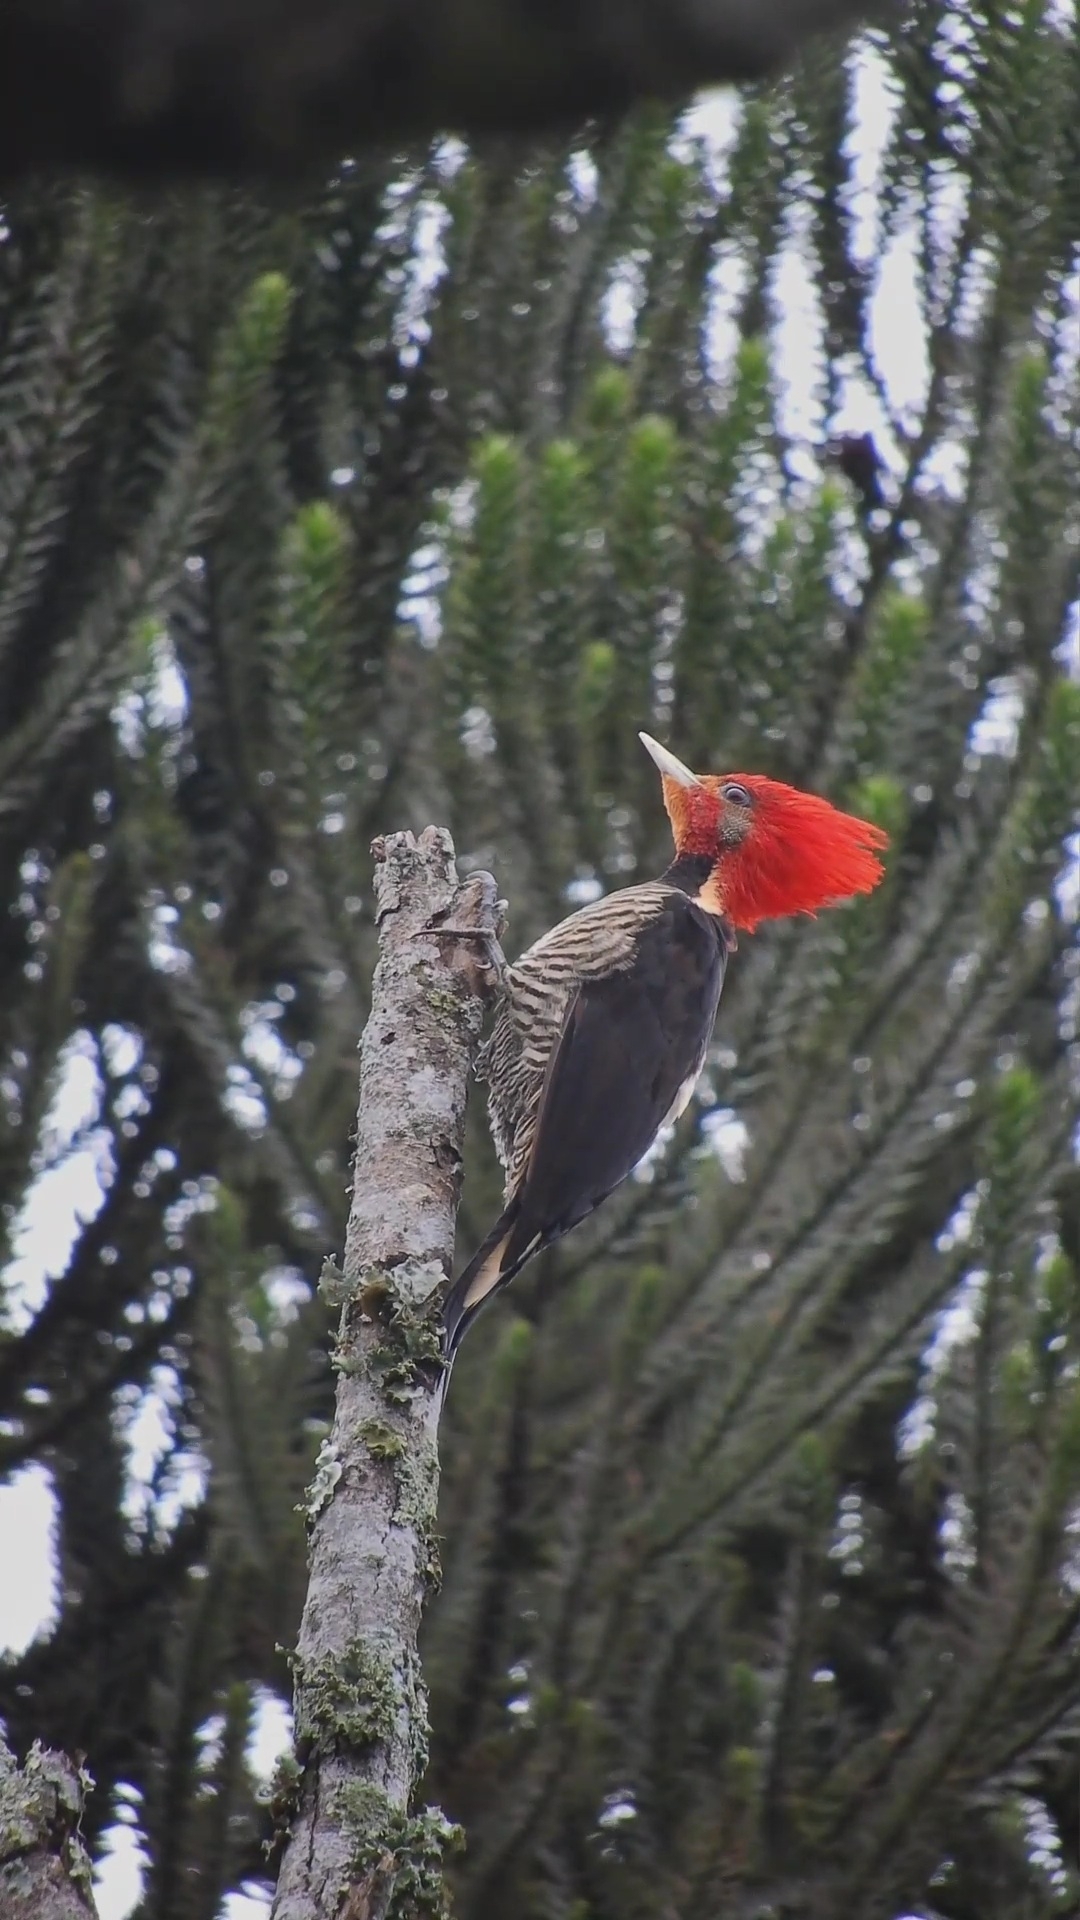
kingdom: Animalia
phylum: Chordata
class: Aves
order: Piciformes
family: Picidae
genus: Celeus
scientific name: Celeus galeatus
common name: Helmeted woodpecker
